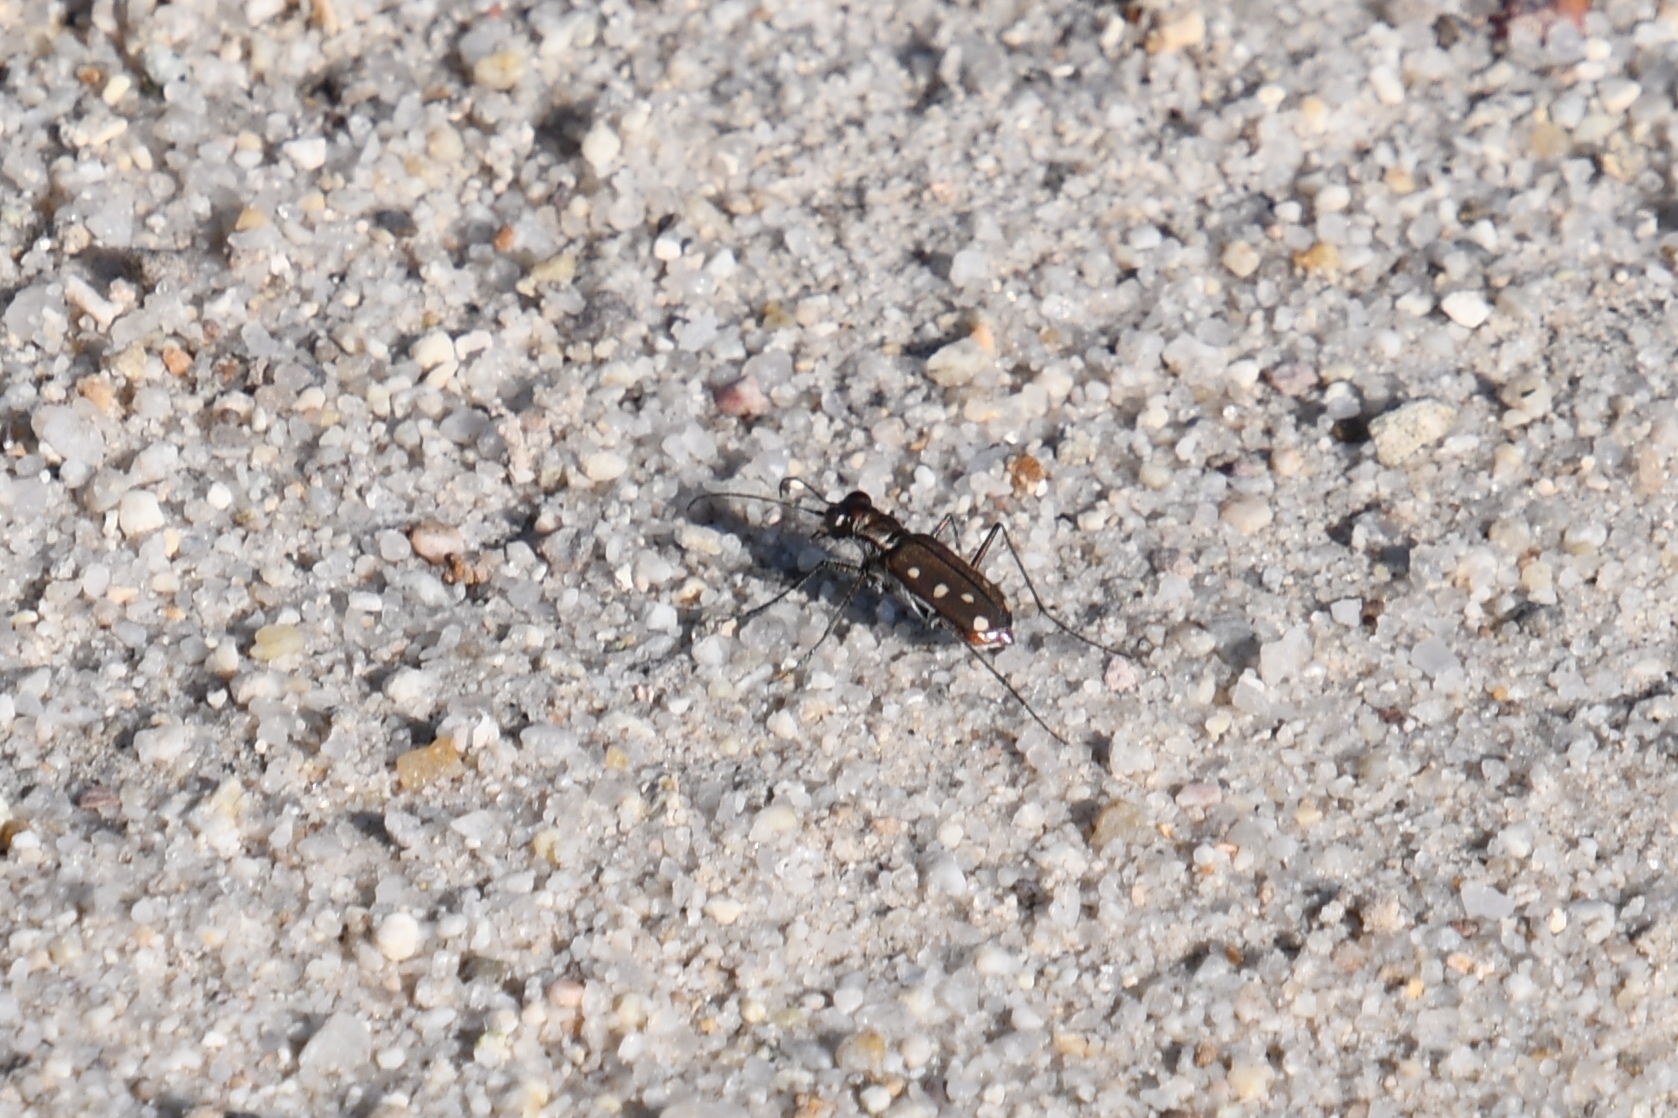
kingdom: Animalia
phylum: Arthropoda
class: Insecta
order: Coleoptera
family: Carabidae
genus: Cicindela
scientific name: Cicindela ocellata
